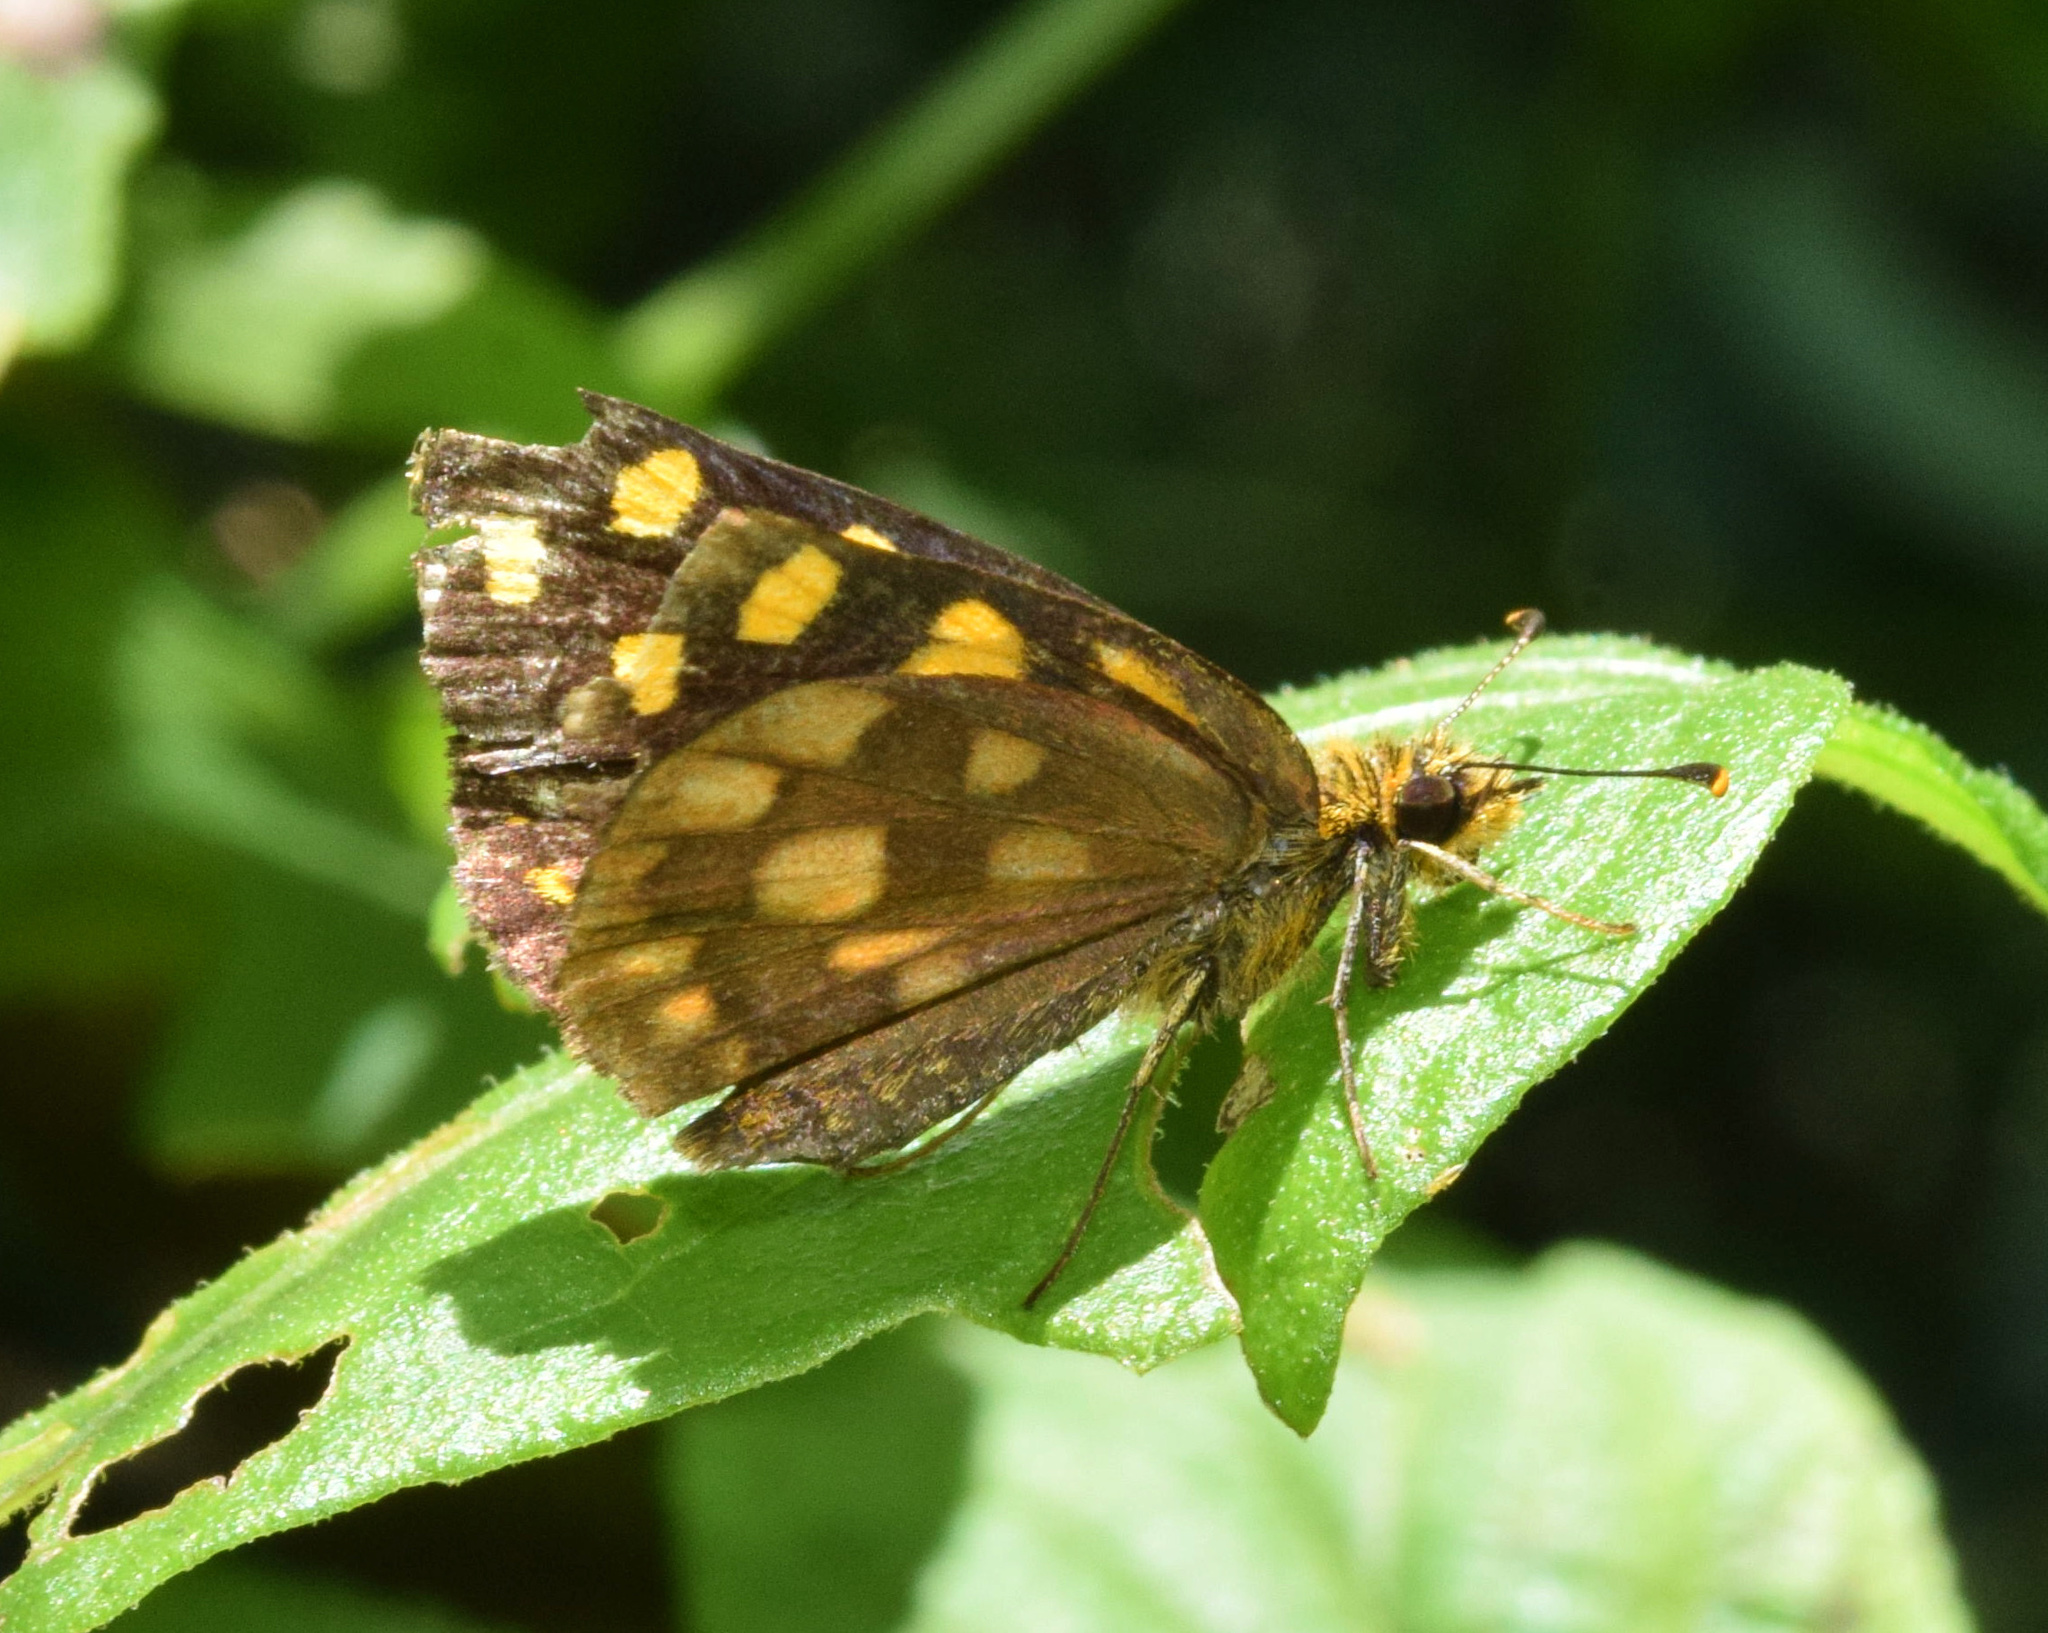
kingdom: Animalia
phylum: Arthropoda
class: Insecta
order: Lepidoptera
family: Hesperiidae
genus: Metisella
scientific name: Metisella metis
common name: Western gold-spotted sylph
